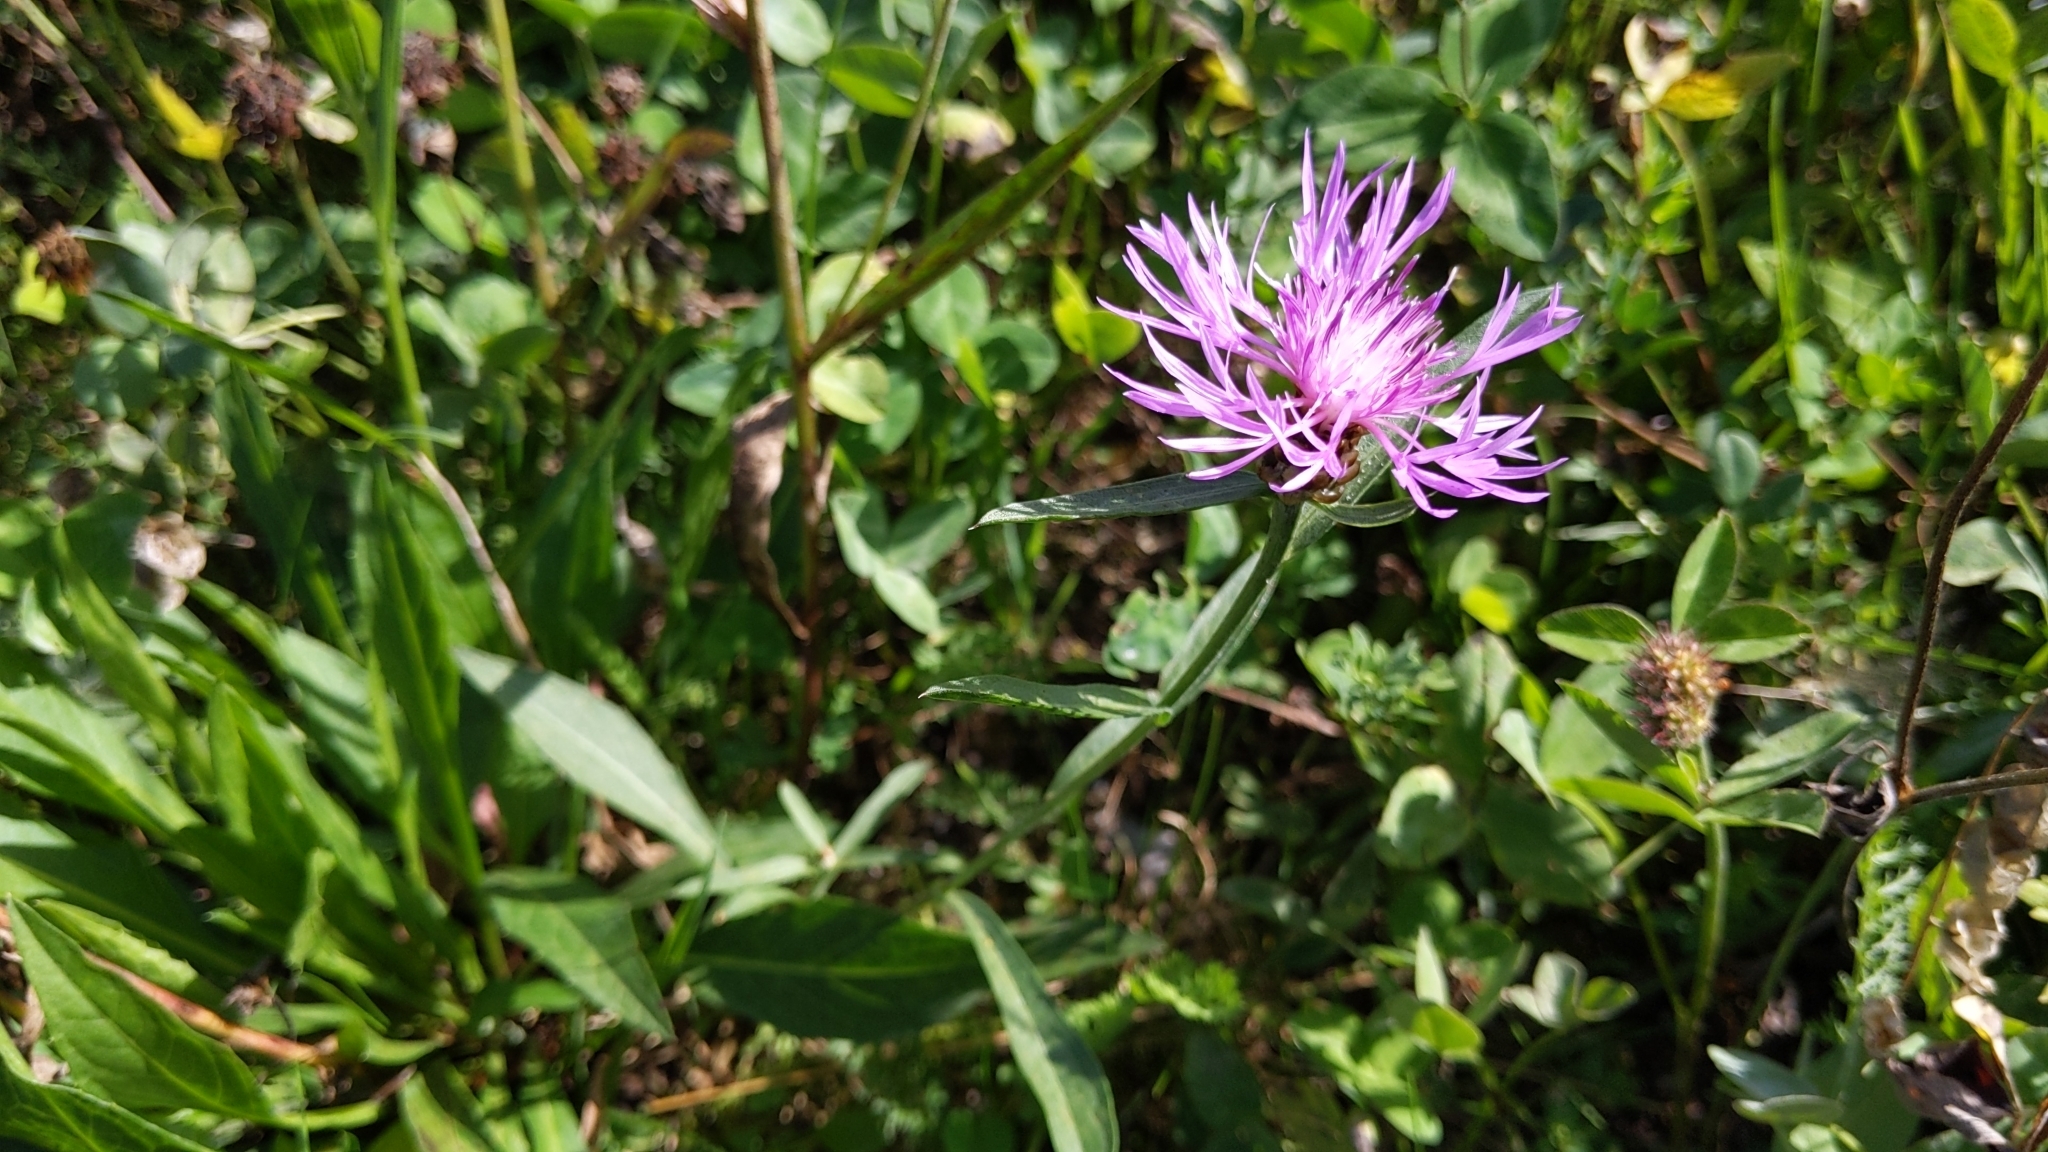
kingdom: Plantae
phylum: Tracheophyta
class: Magnoliopsida
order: Asterales
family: Asteraceae
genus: Centaurea
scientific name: Centaurea jacea
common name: Brown knapweed
